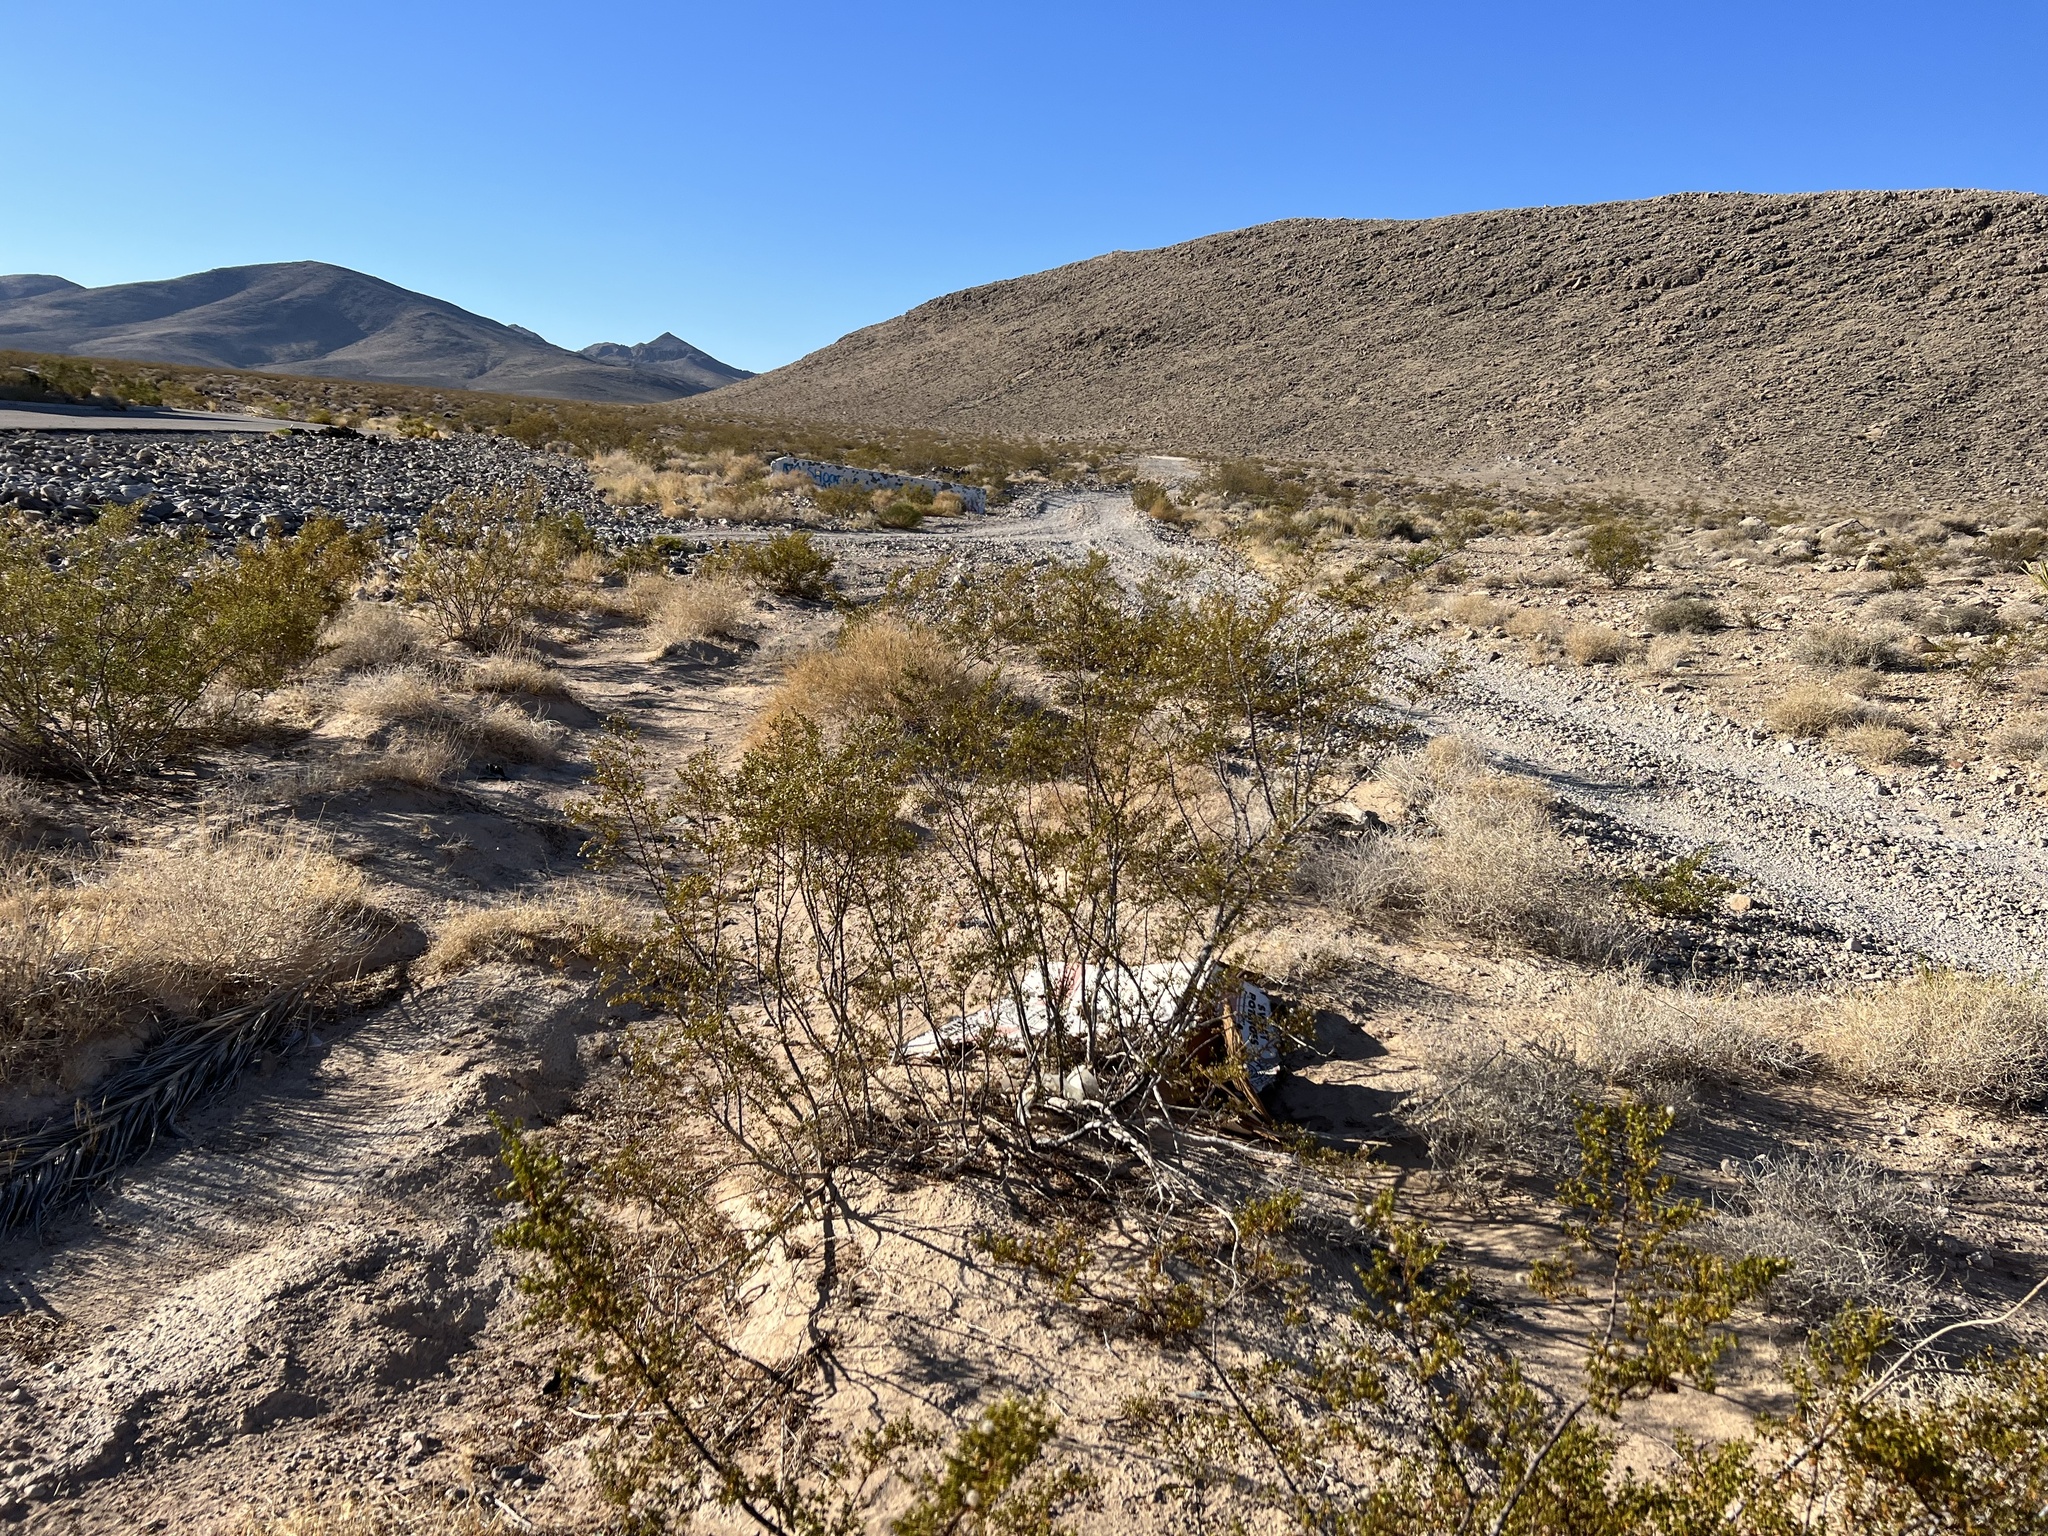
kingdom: Plantae
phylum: Tracheophyta
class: Magnoliopsida
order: Zygophyllales
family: Zygophyllaceae
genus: Larrea
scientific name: Larrea tridentata
